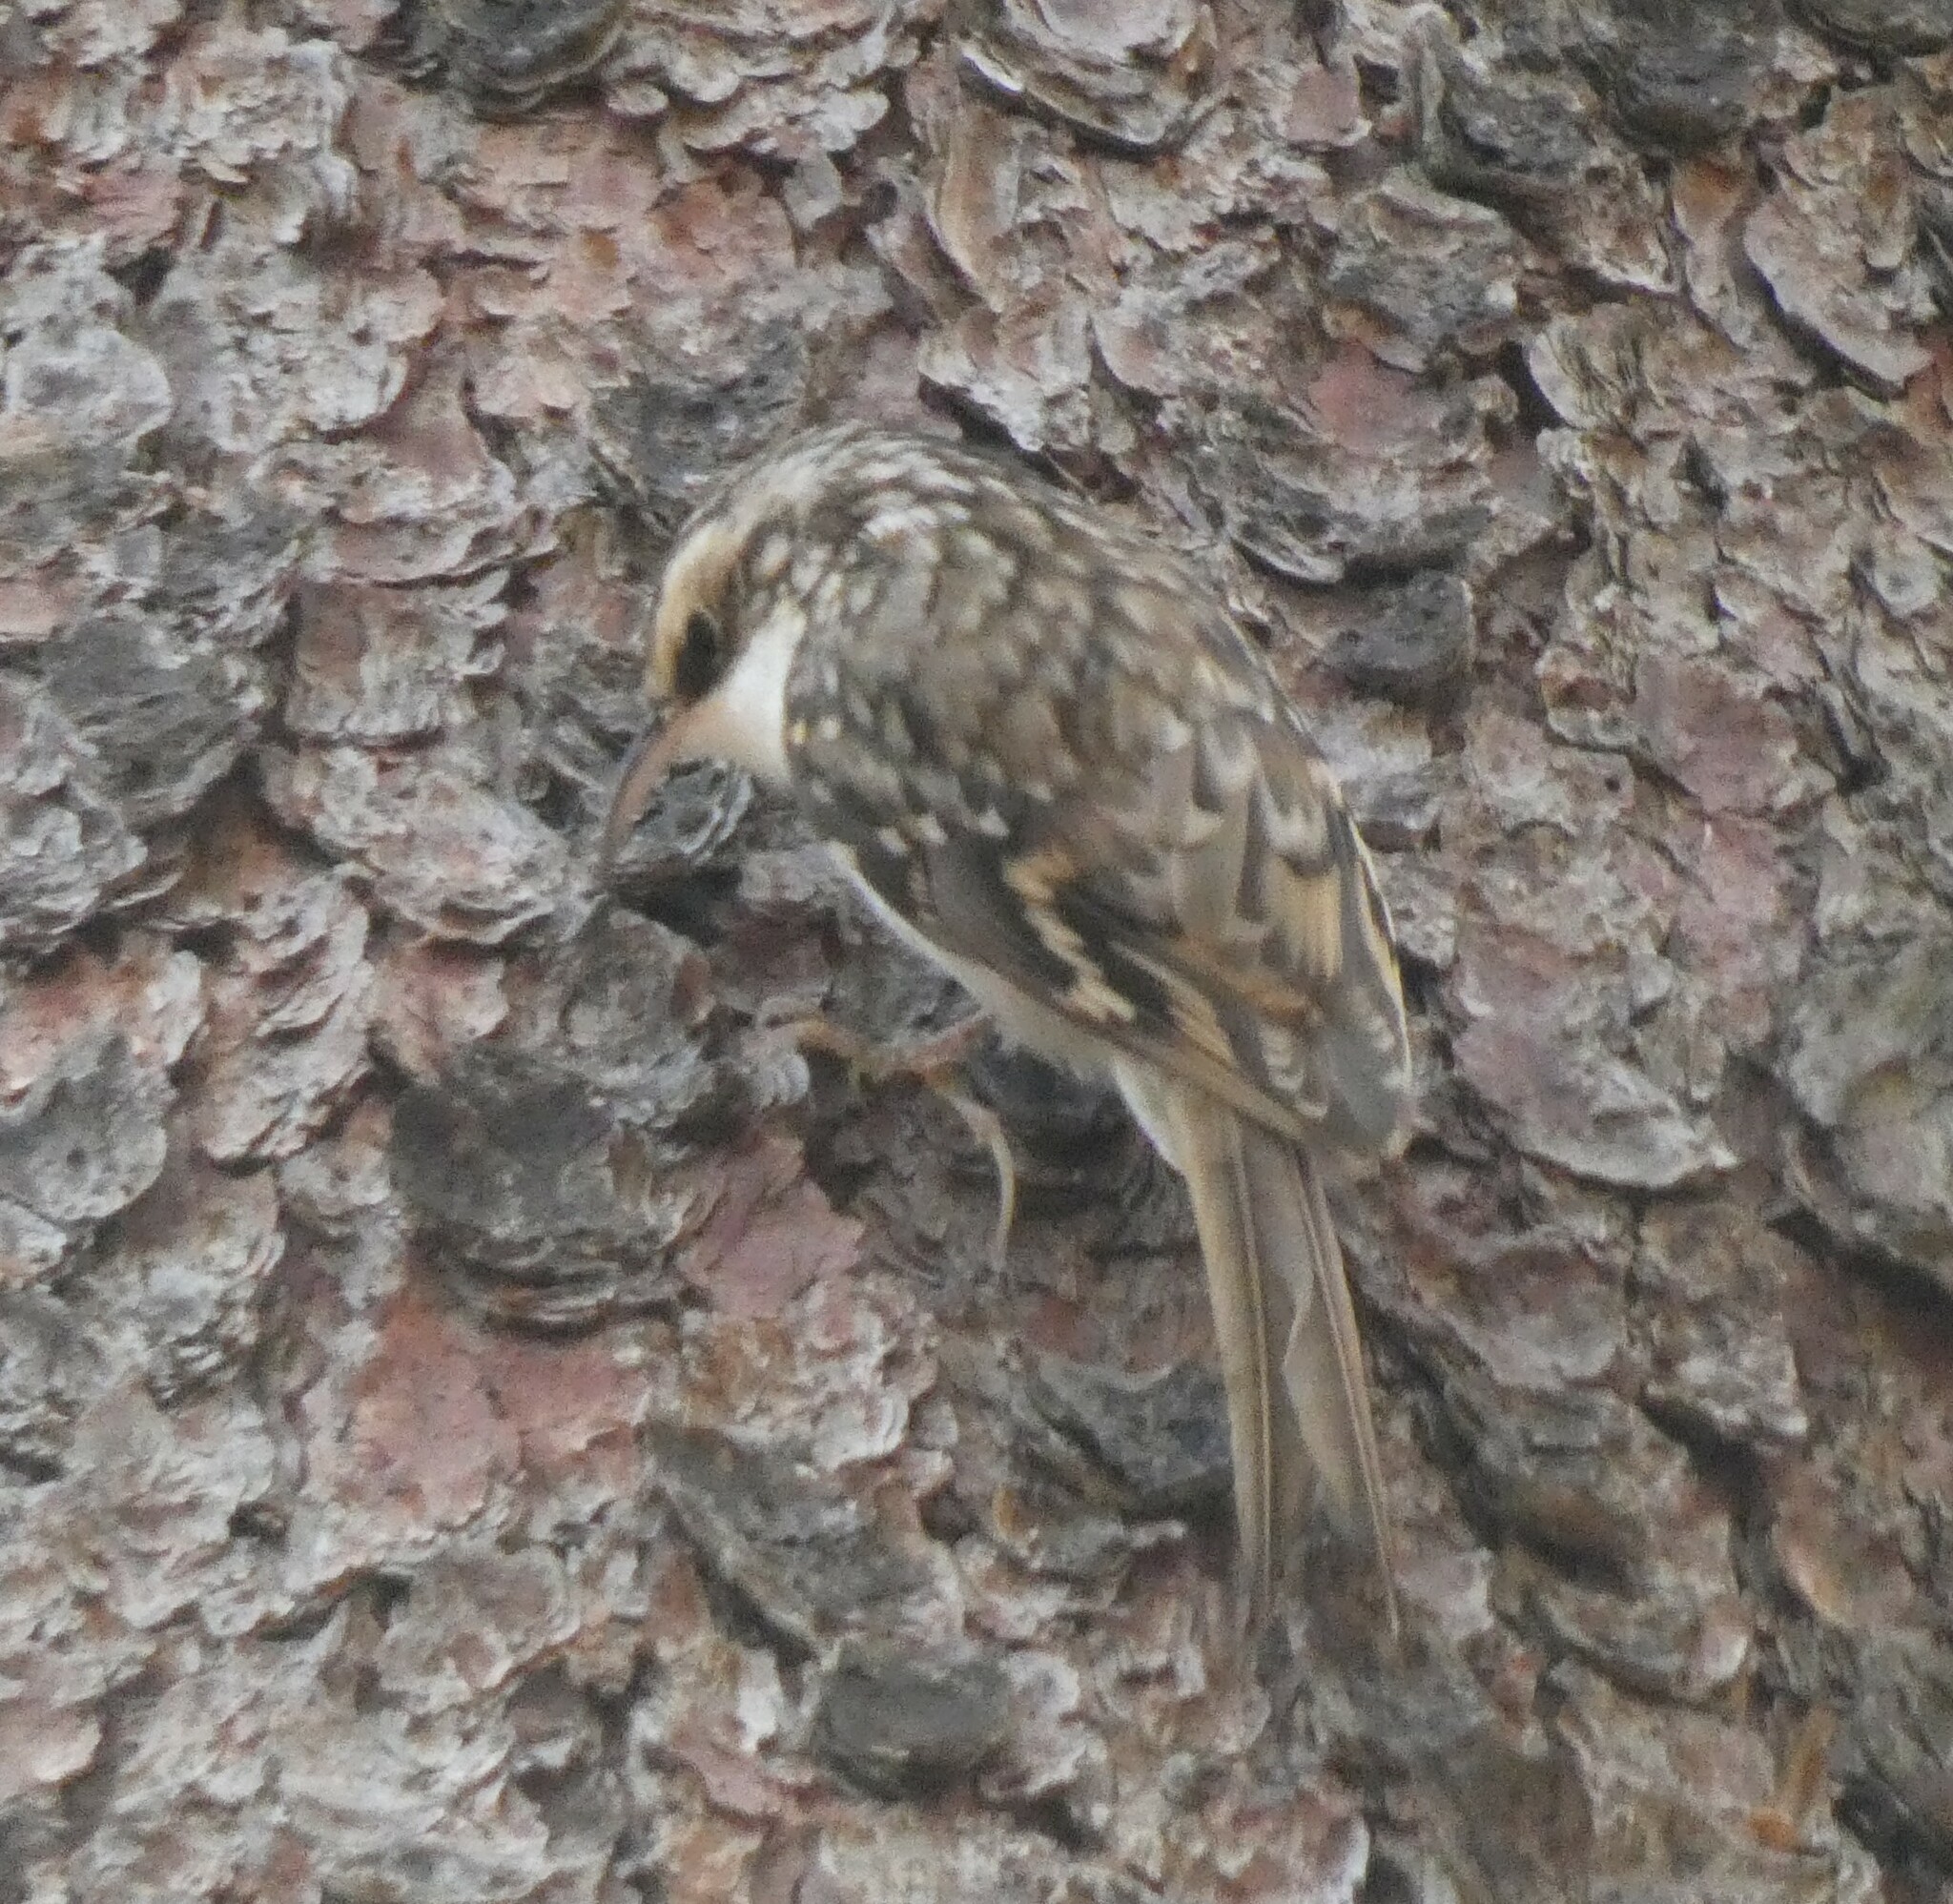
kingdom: Animalia
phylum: Chordata
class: Aves
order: Passeriformes
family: Certhiidae
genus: Certhia
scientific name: Certhia familiaris
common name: Eurasian treecreeper
